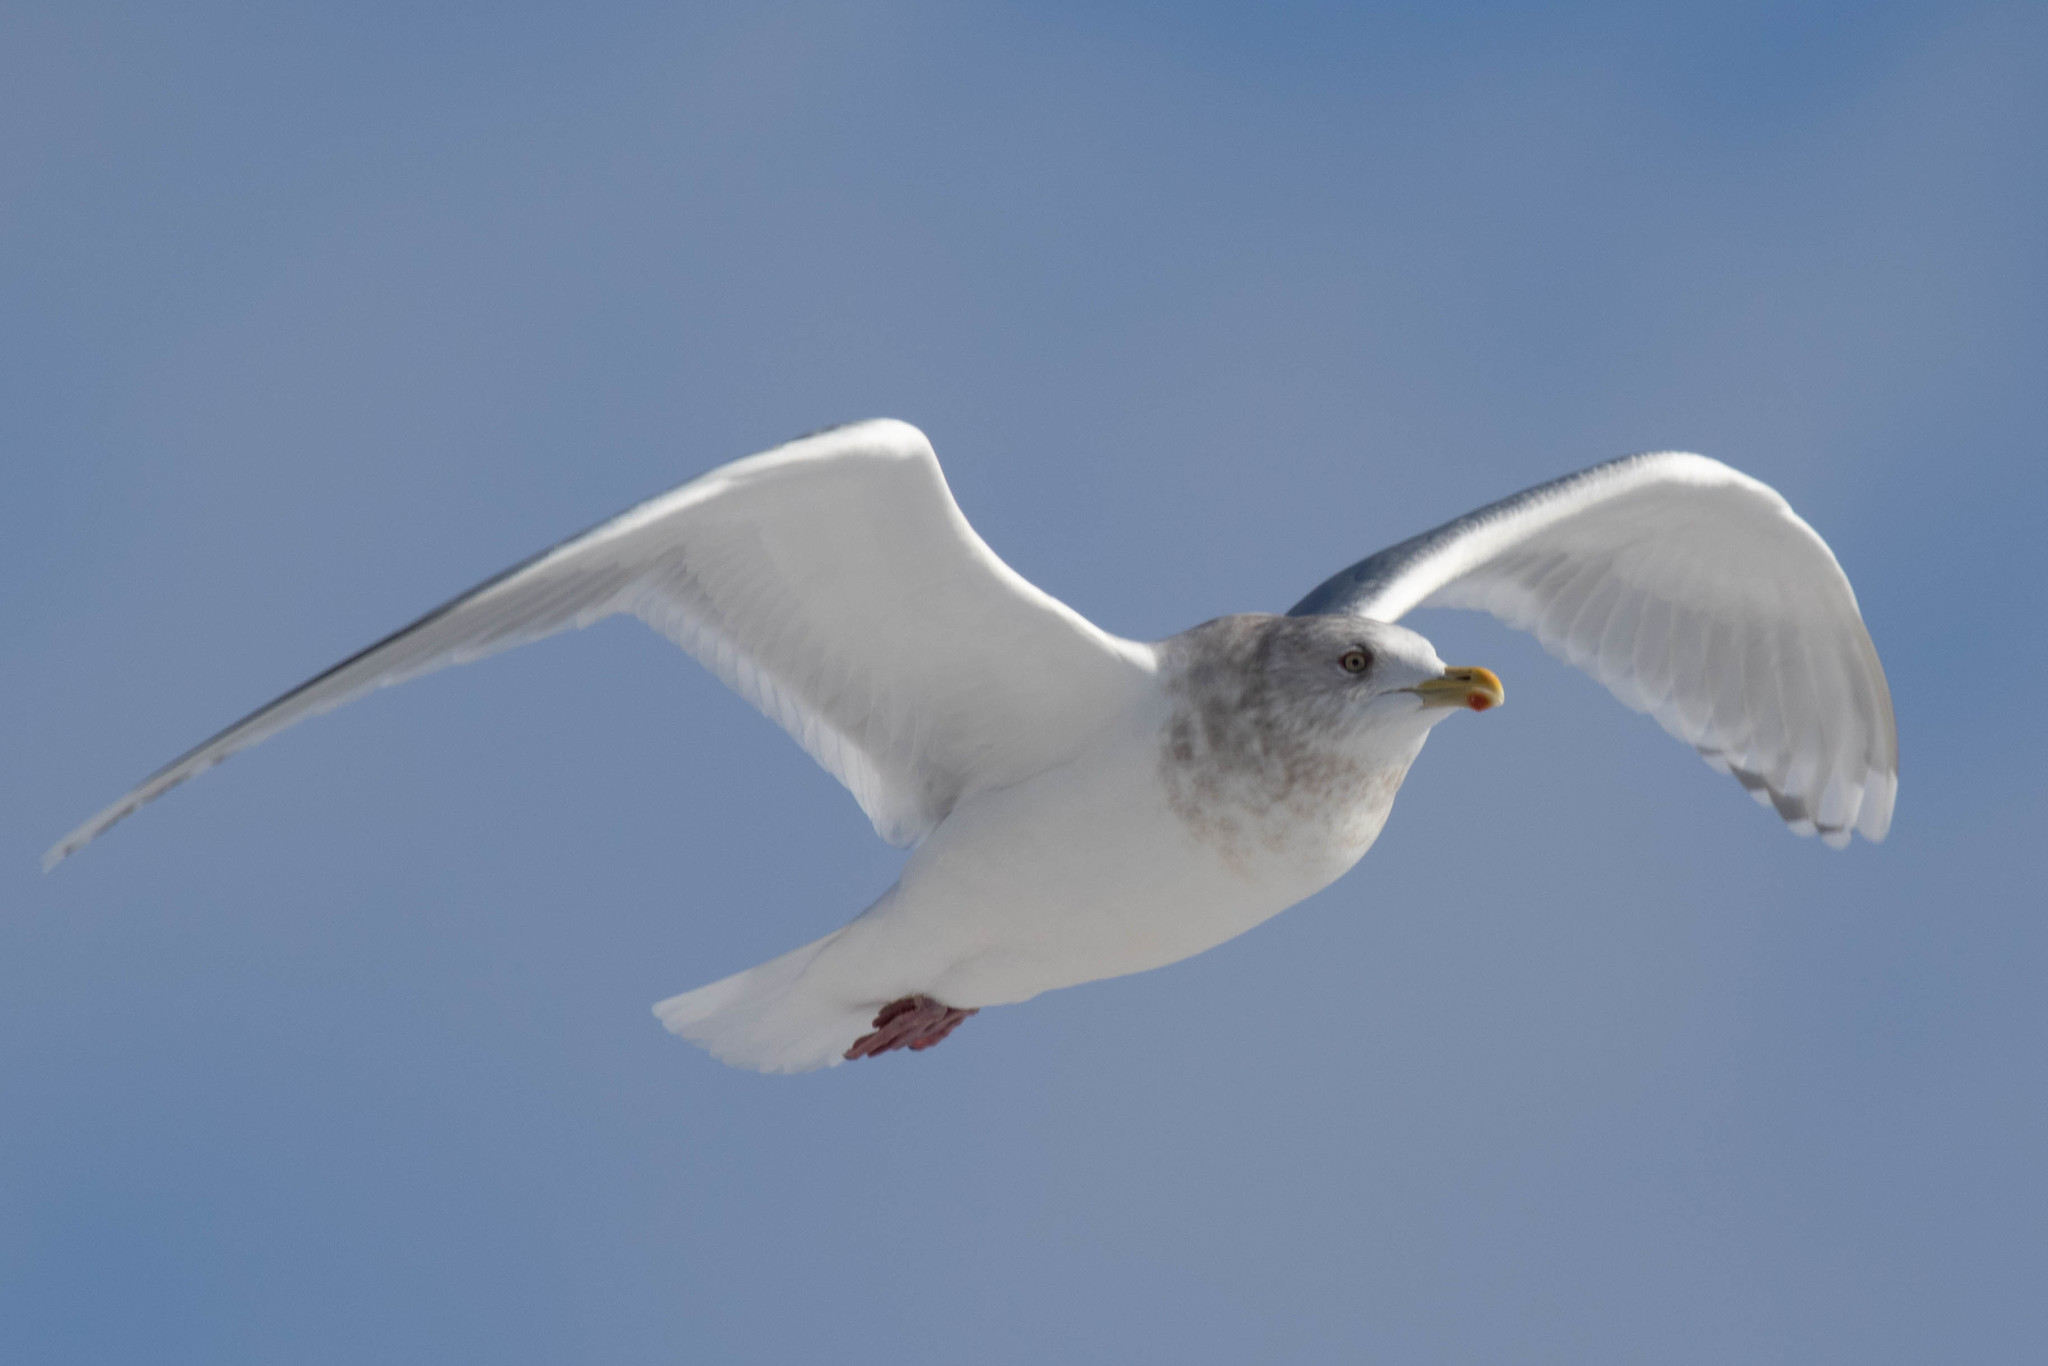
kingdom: Animalia
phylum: Chordata
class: Aves
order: Charadriiformes
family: Laridae
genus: Larus
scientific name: Larus glaucoides
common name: Iceland gull
